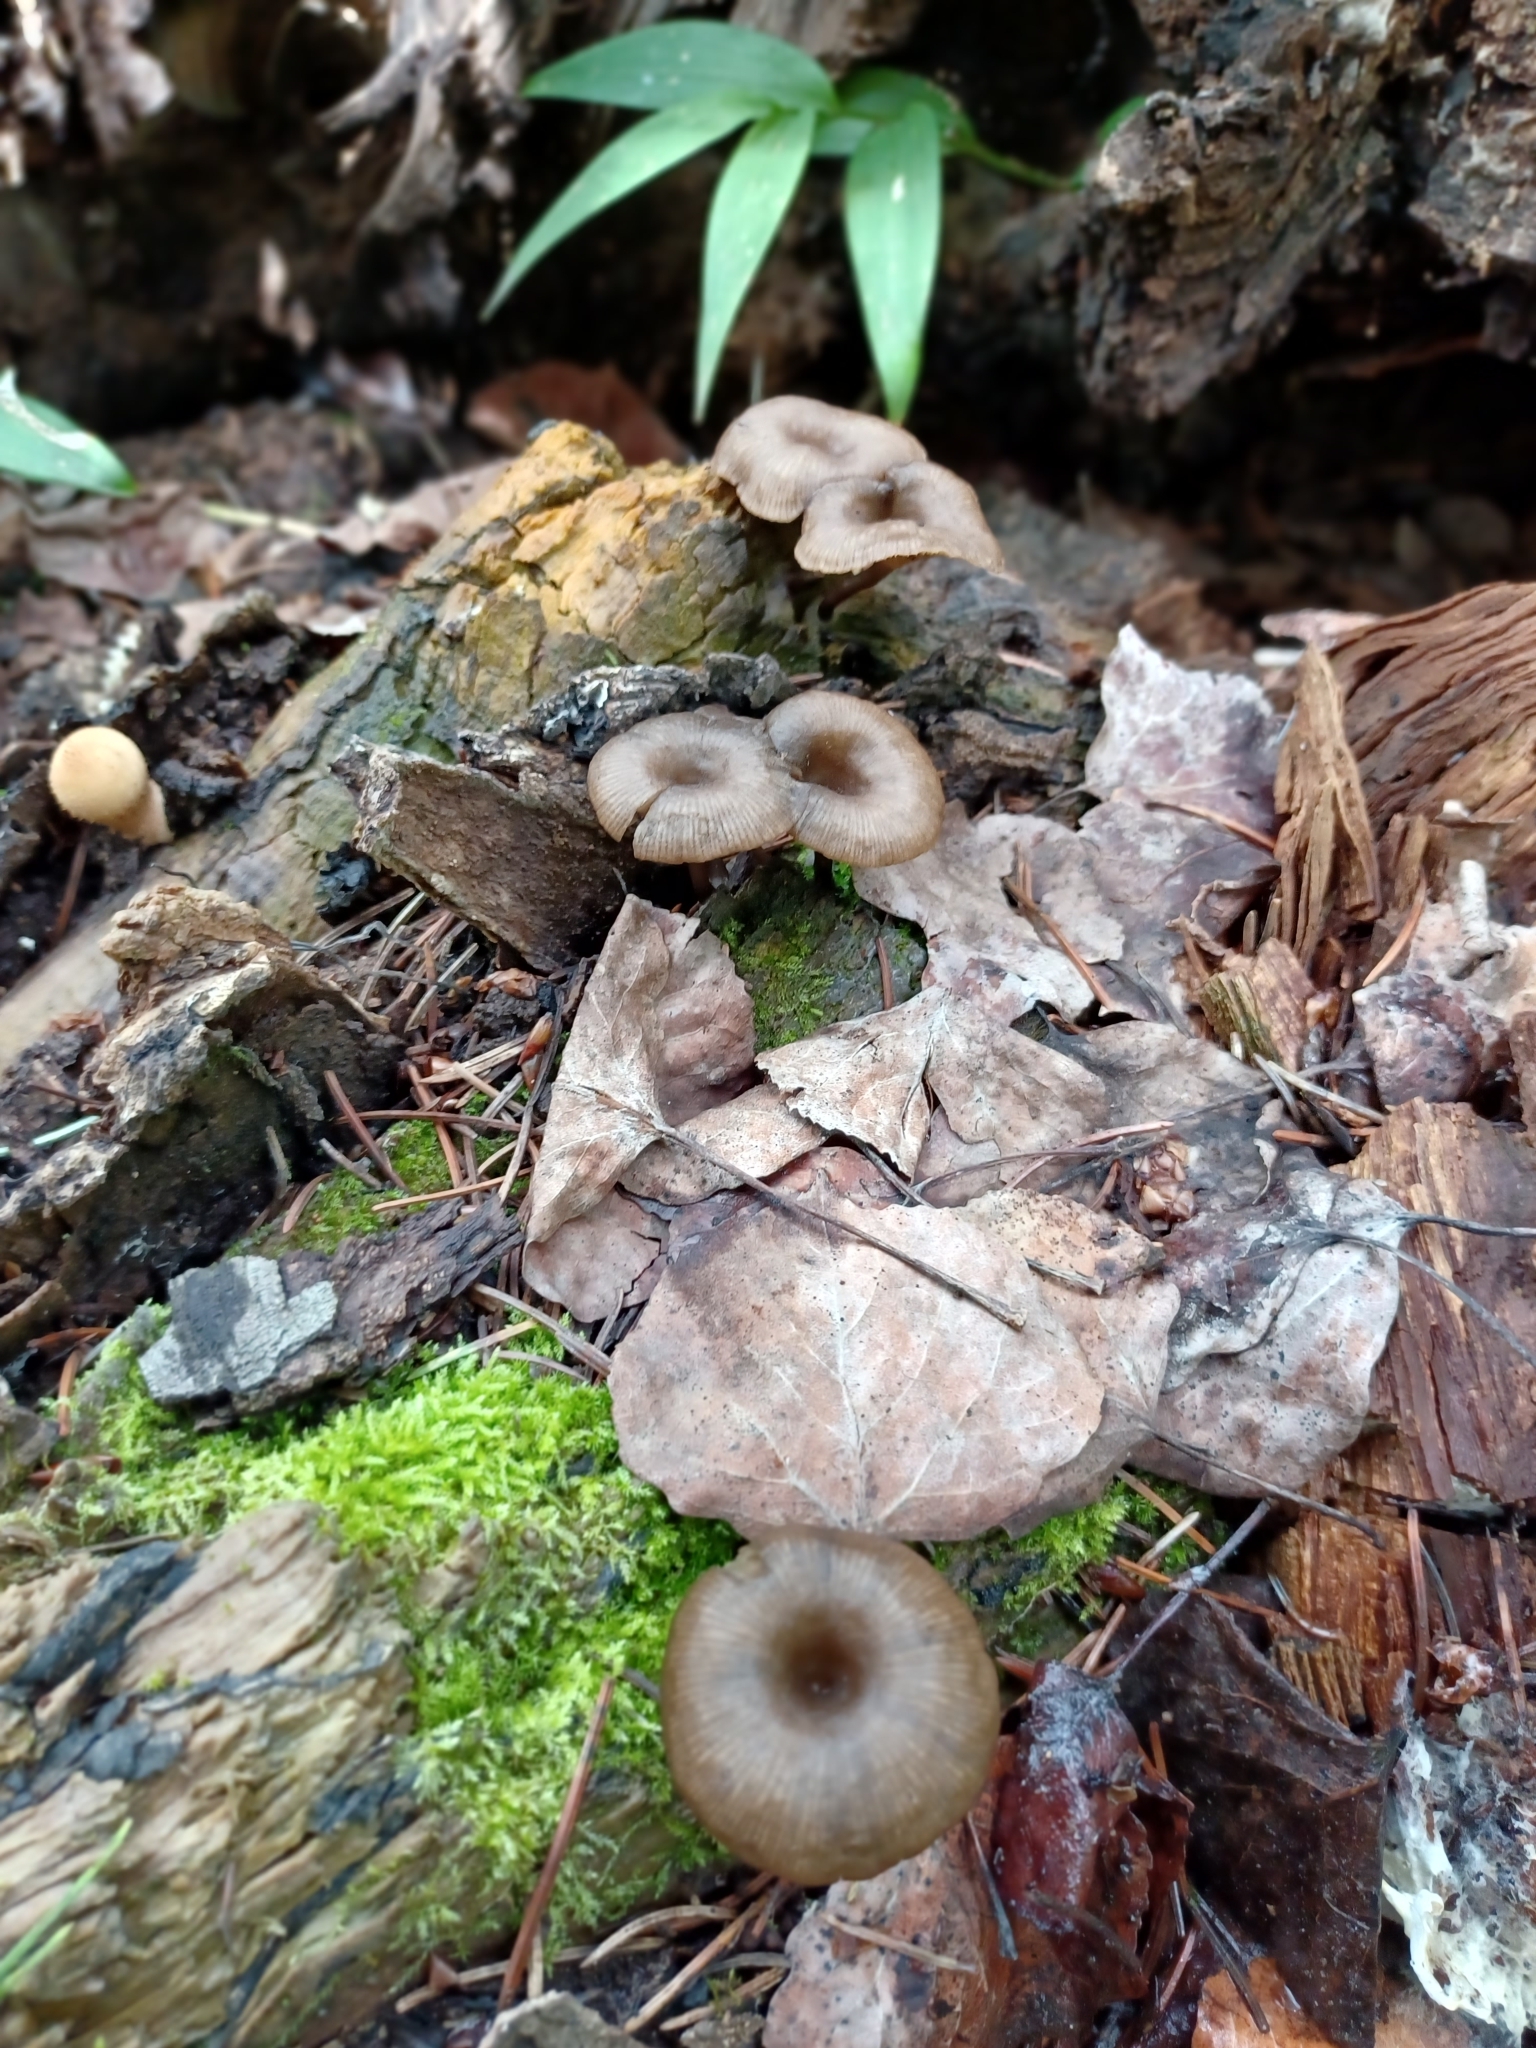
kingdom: Fungi
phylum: Basidiomycota
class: Agaricomycetes
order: Agaricales
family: Hygrophoraceae
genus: Arrhenia
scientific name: Arrhenia epichysium
